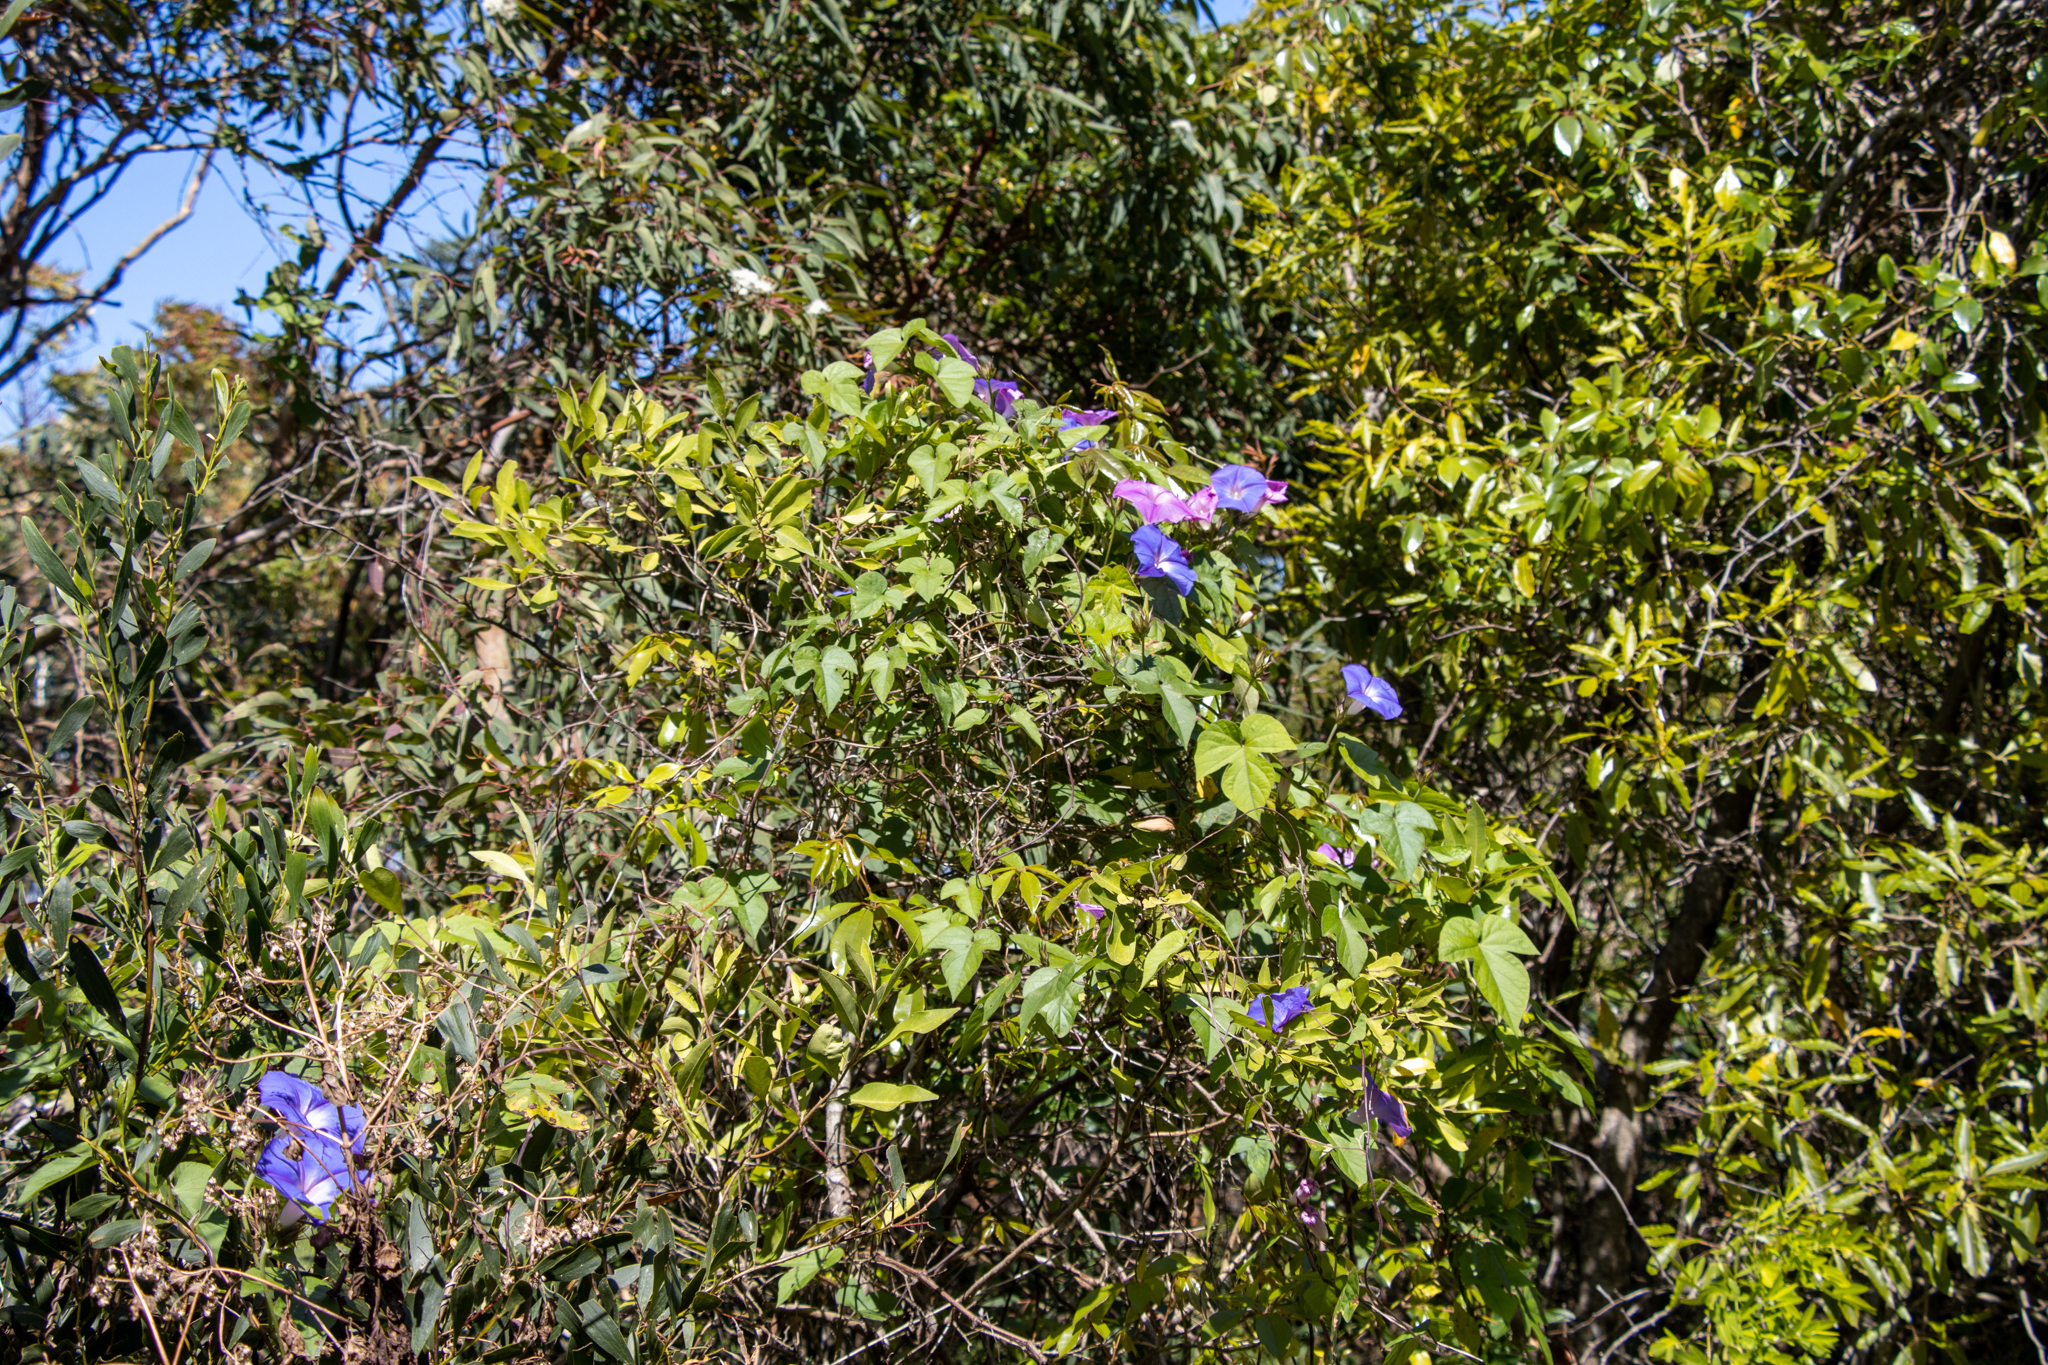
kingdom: Plantae
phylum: Tracheophyta
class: Magnoliopsida
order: Solanales
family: Convolvulaceae
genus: Ipomoea
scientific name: Ipomoea indica
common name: Blue dawnflower
